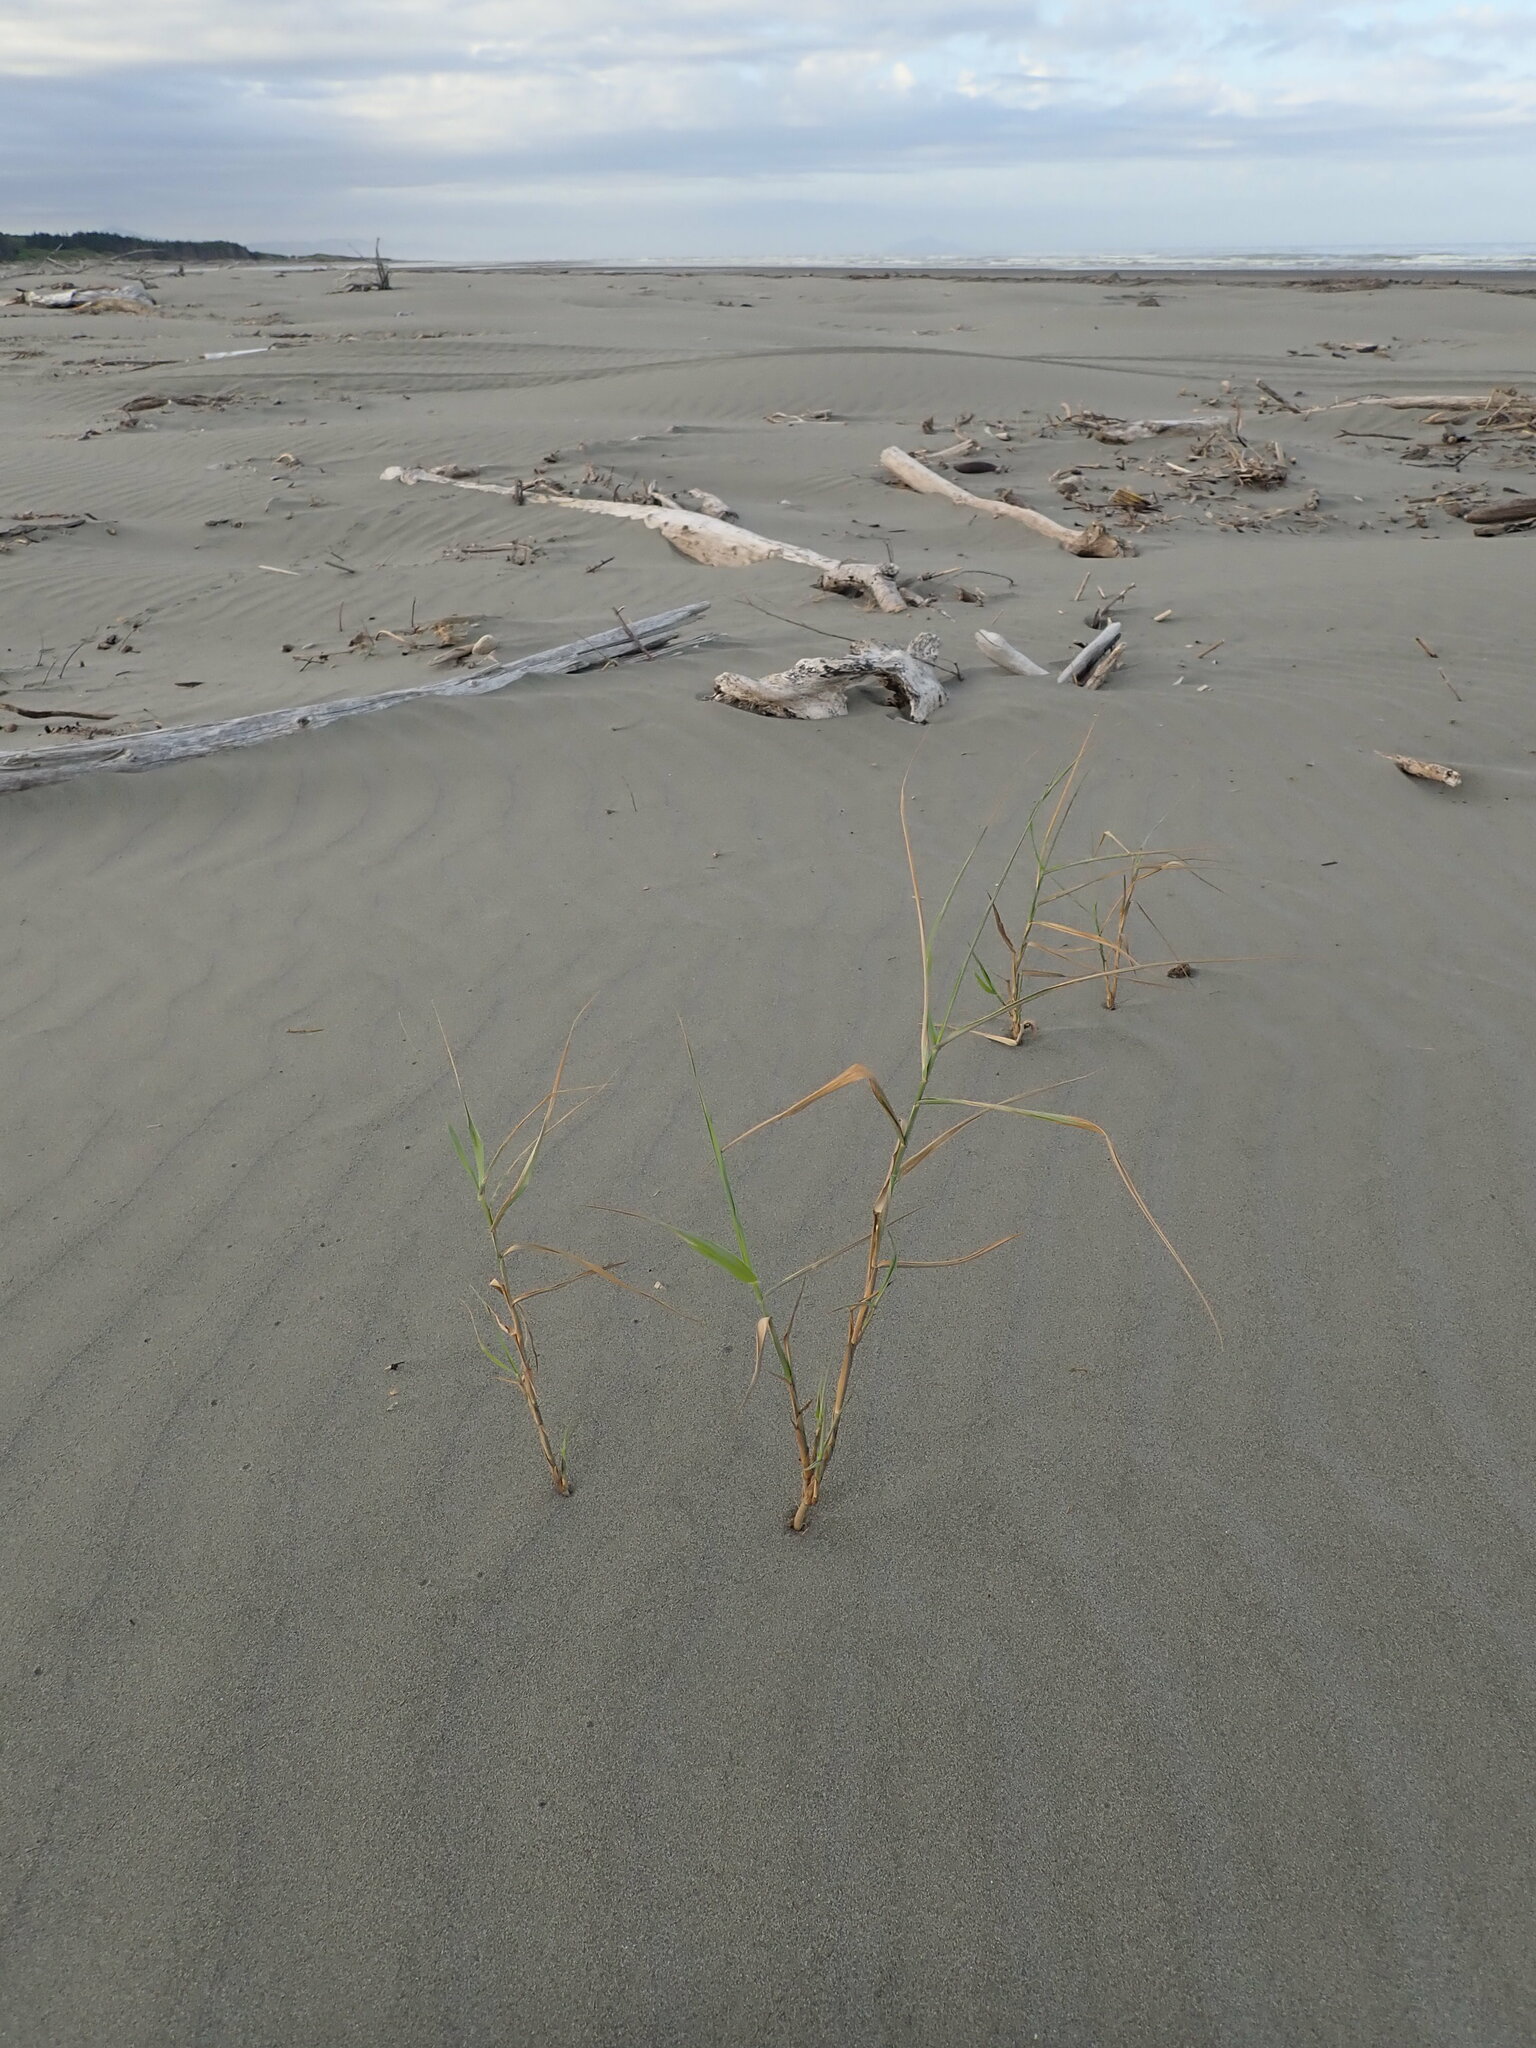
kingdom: Plantae
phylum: Tracheophyta
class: Liliopsida
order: Poales
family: Poaceae
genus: Phragmites
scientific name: Phragmites karka
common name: Tropical reed
